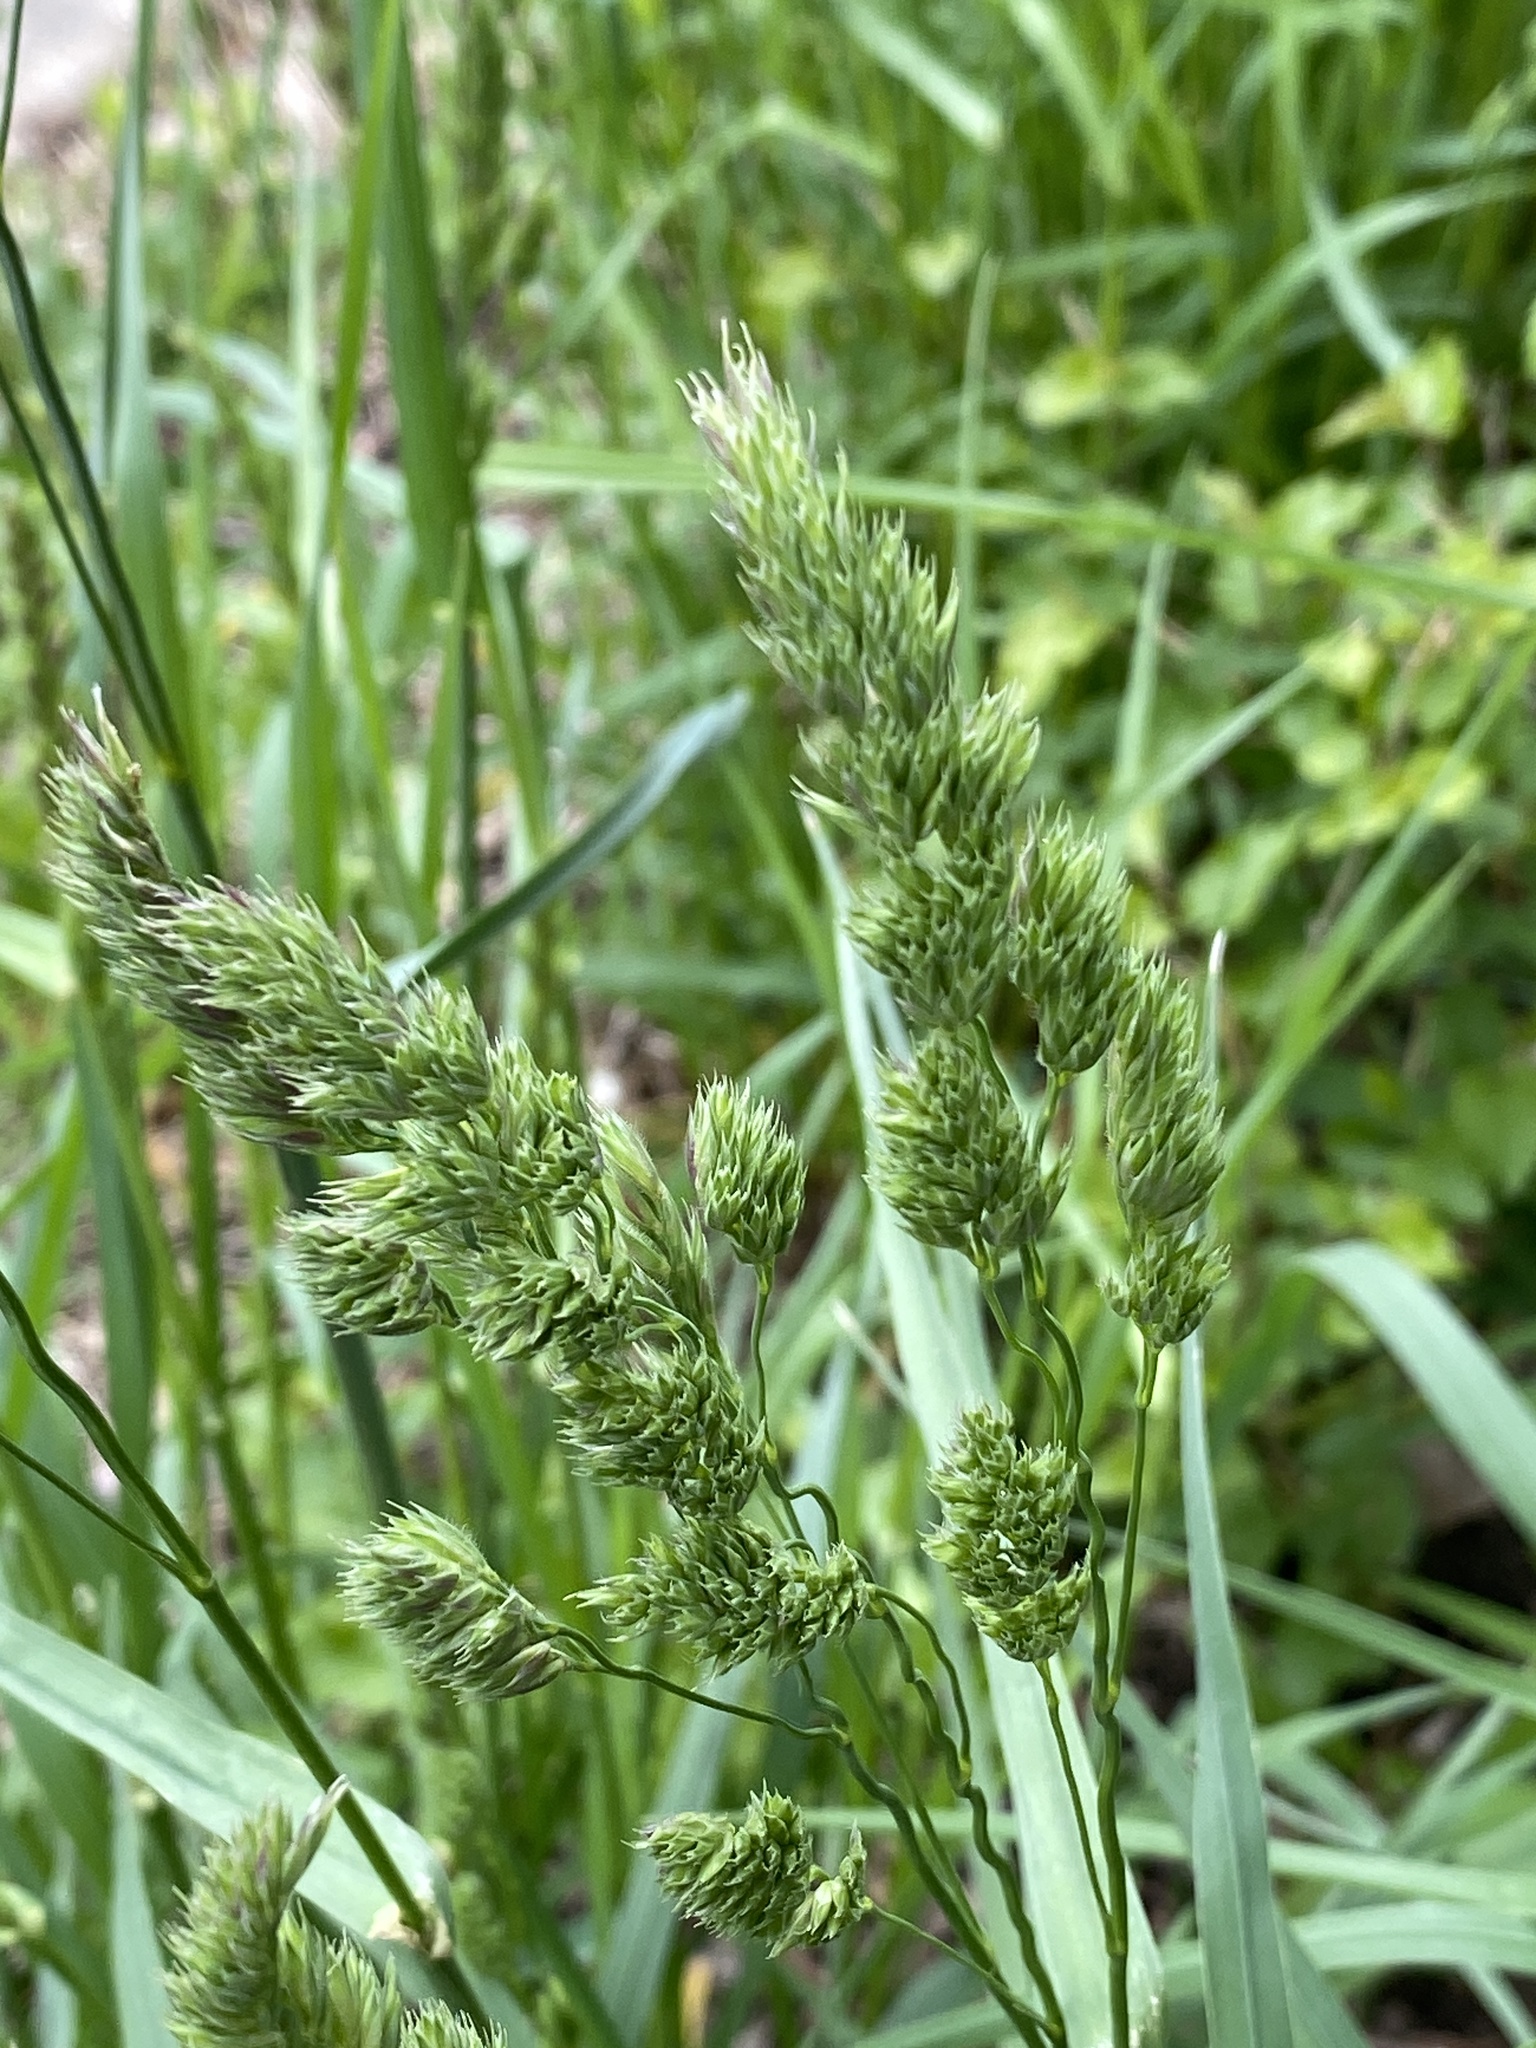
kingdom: Plantae
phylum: Tracheophyta
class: Liliopsida
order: Poales
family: Poaceae
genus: Dactylis
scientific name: Dactylis glomerata
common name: Orchardgrass
